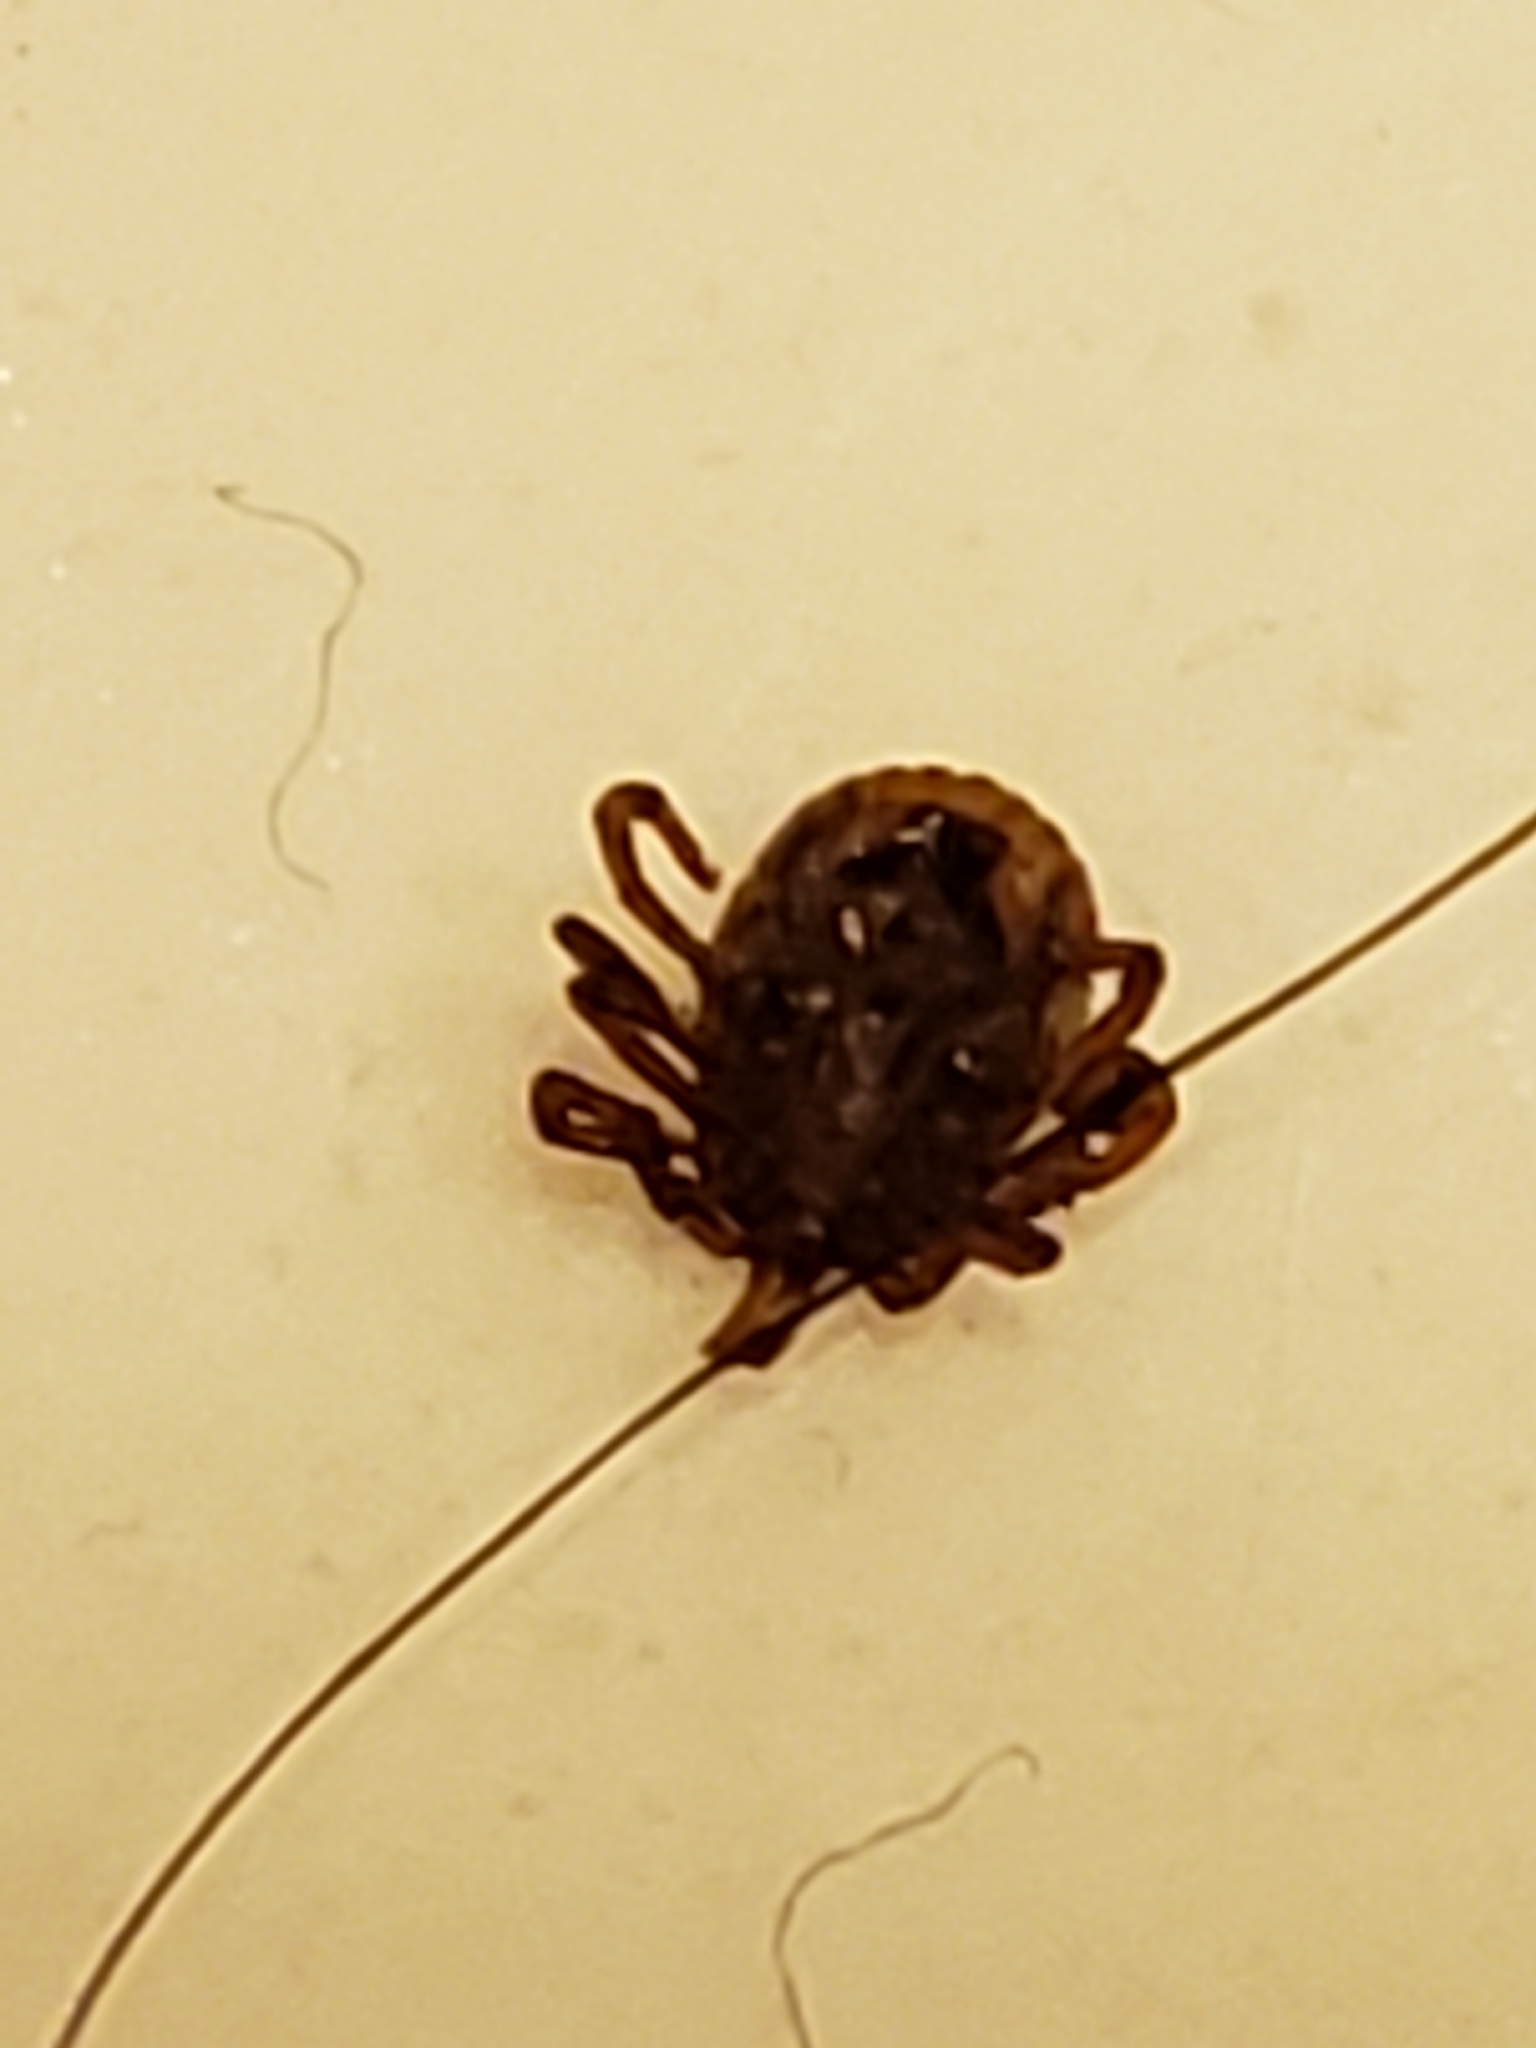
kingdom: Animalia
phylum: Arthropoda
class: Arachnida
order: Ixodida
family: Ixodidae
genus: Amblyomma
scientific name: Amblyomma americanum
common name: Lone star tick
